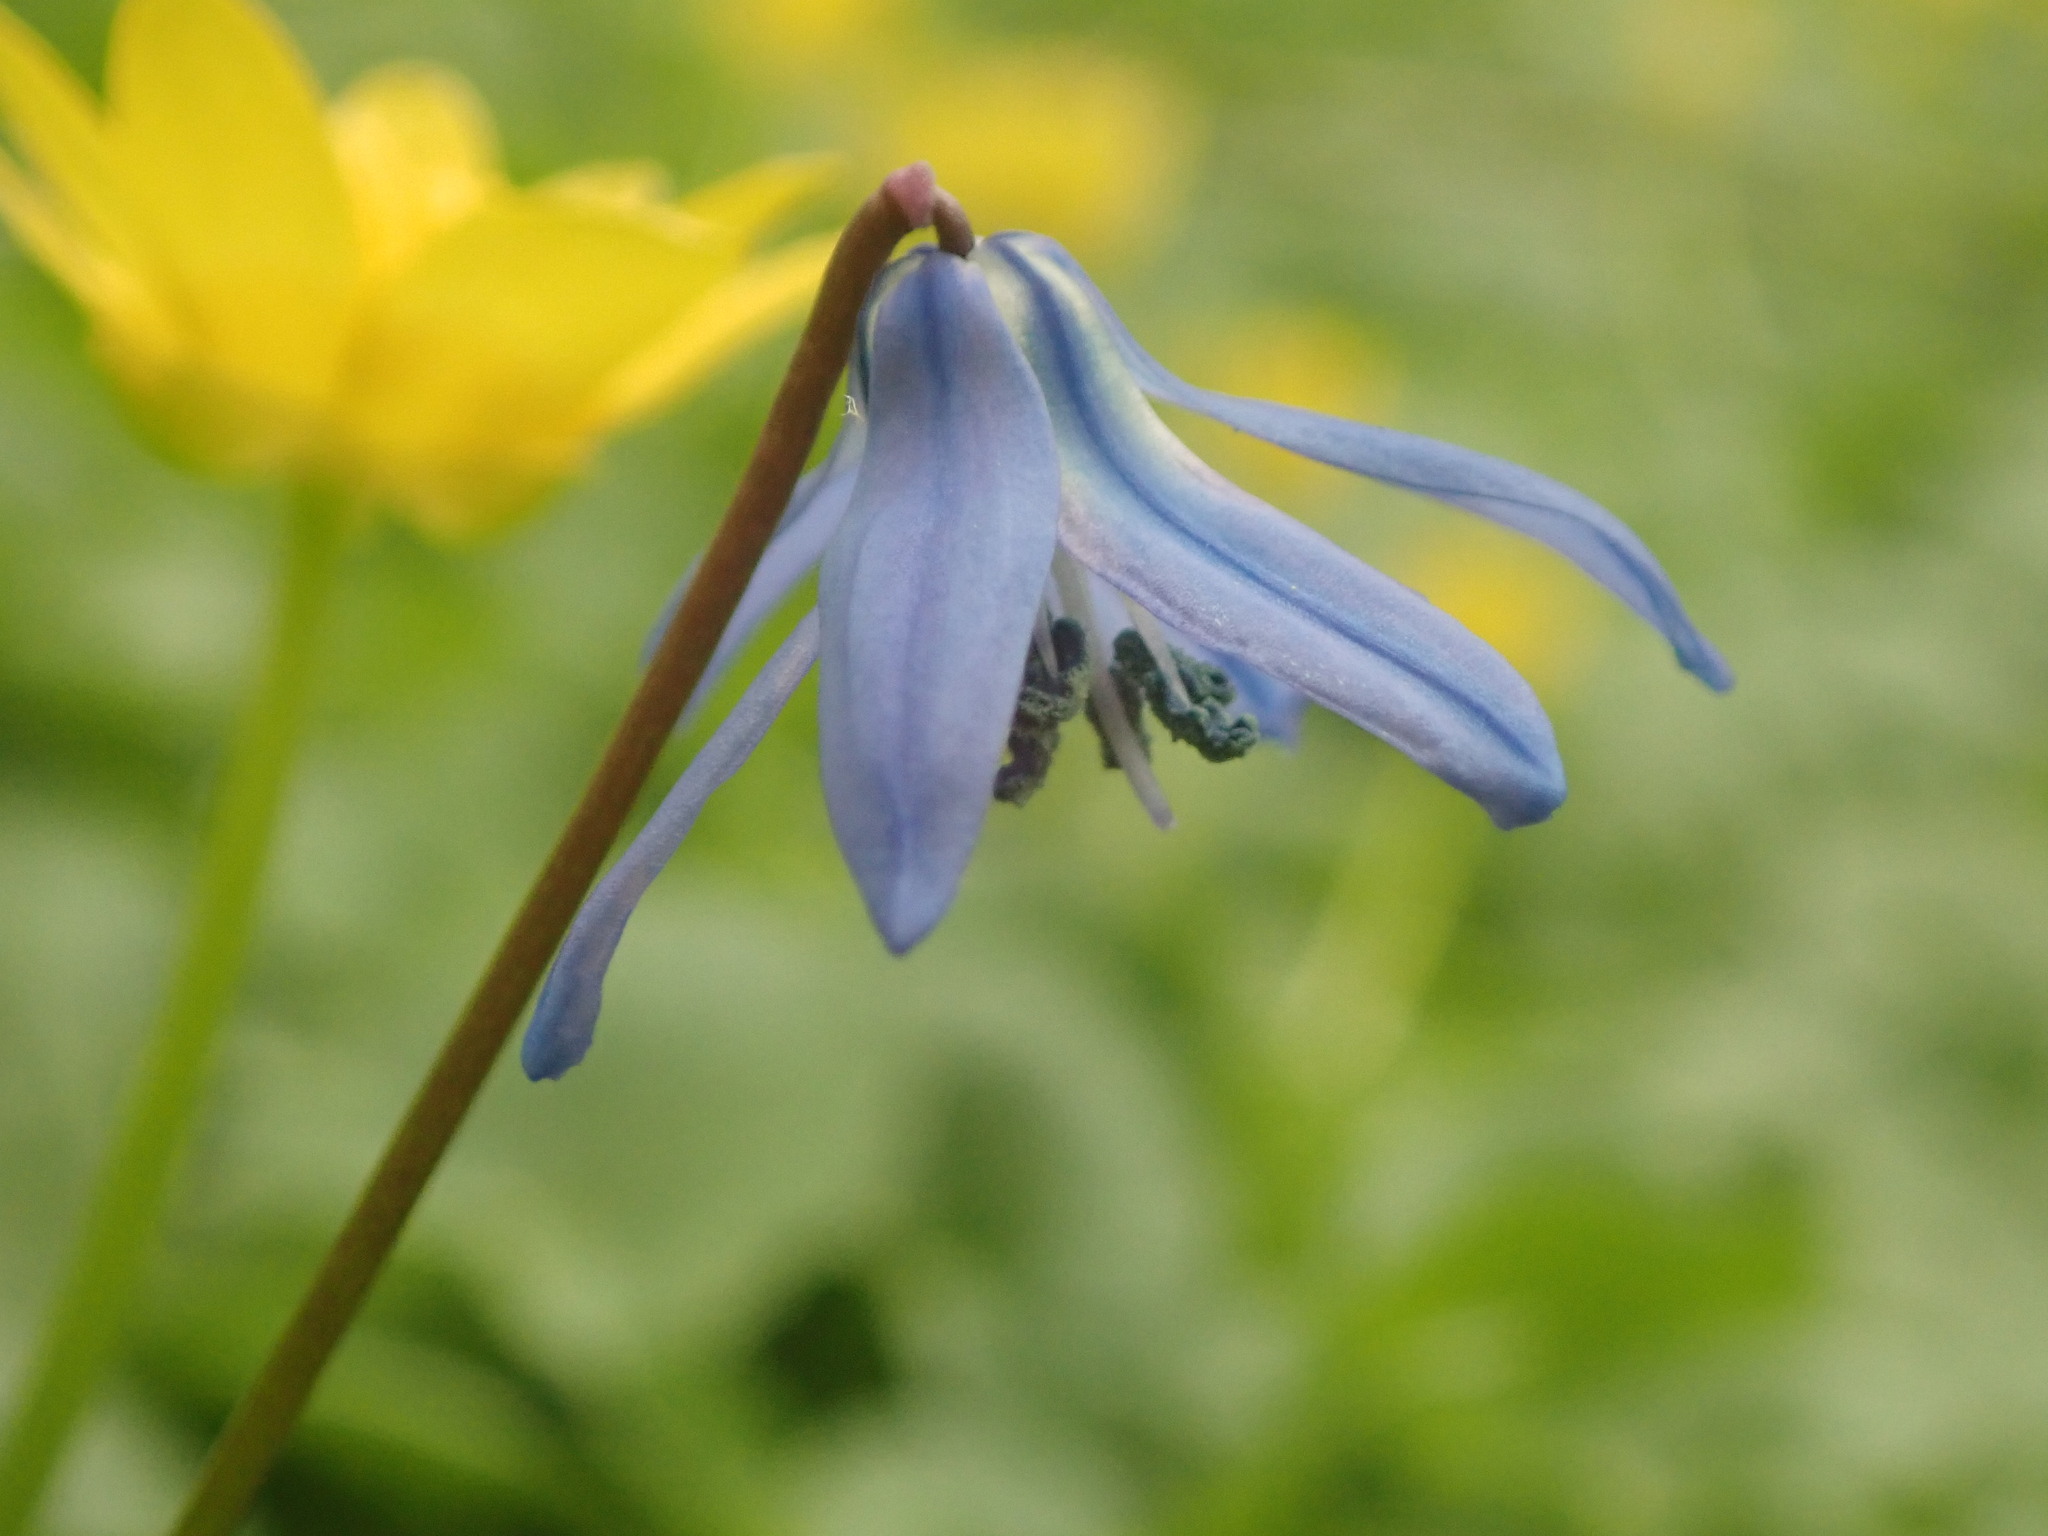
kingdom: Plantae
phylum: Tracheophyta
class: Liliopsida
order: Asparagales
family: Asparagaceae
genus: Scilla
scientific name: Scilla siberica
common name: Siberian squill
